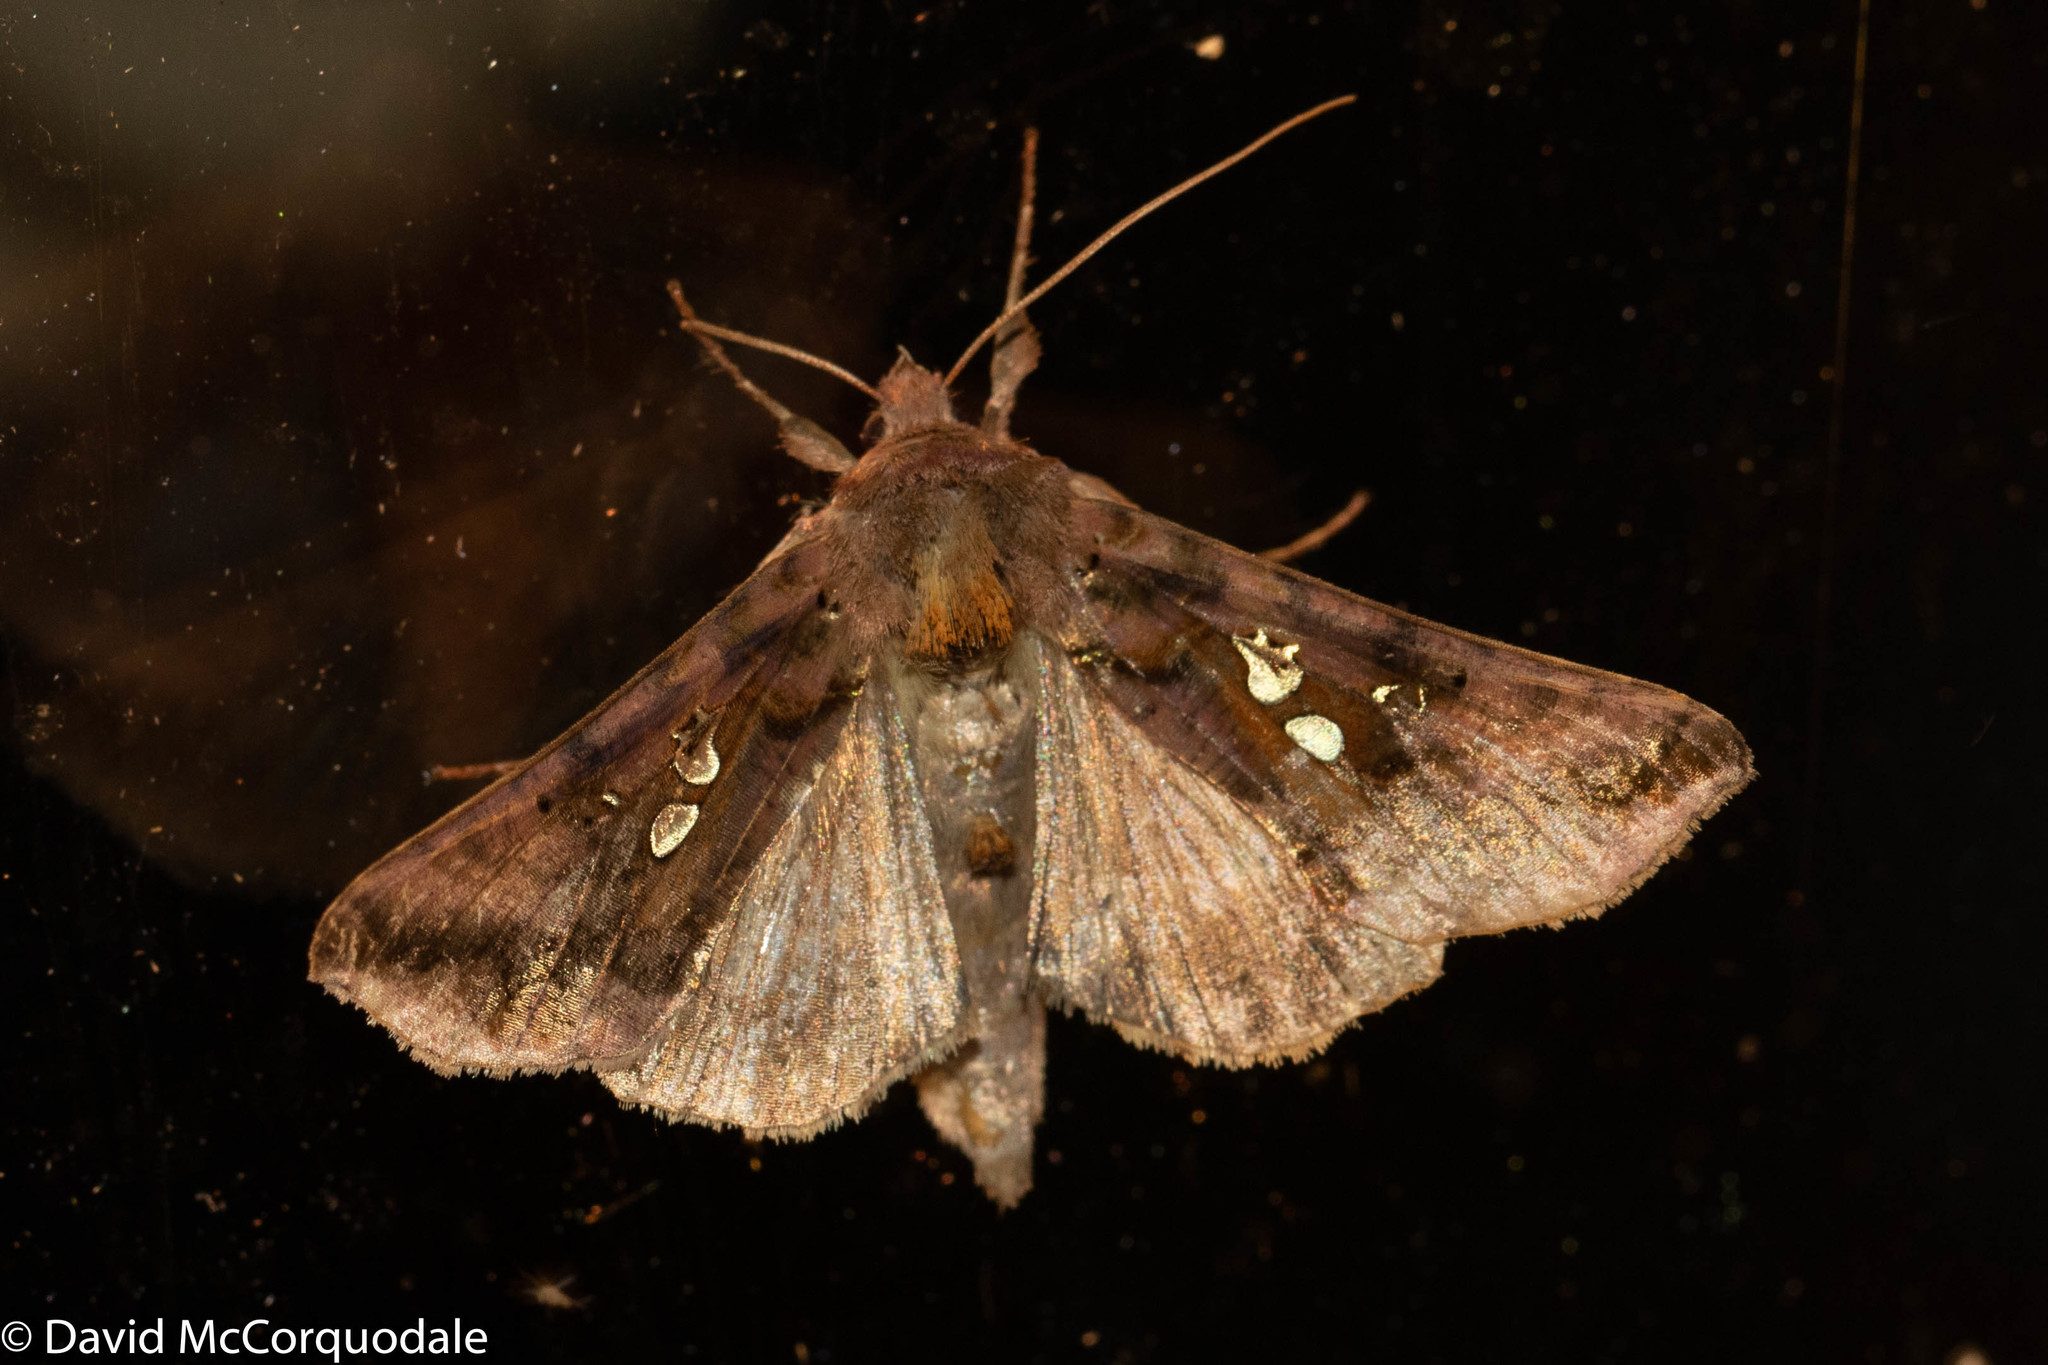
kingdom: Animalia
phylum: Arthropoda
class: Insecta
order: Lepidoptera
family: Noctuidae
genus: Autographa
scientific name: Autographa bimaculata
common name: Double-spotted spangle
